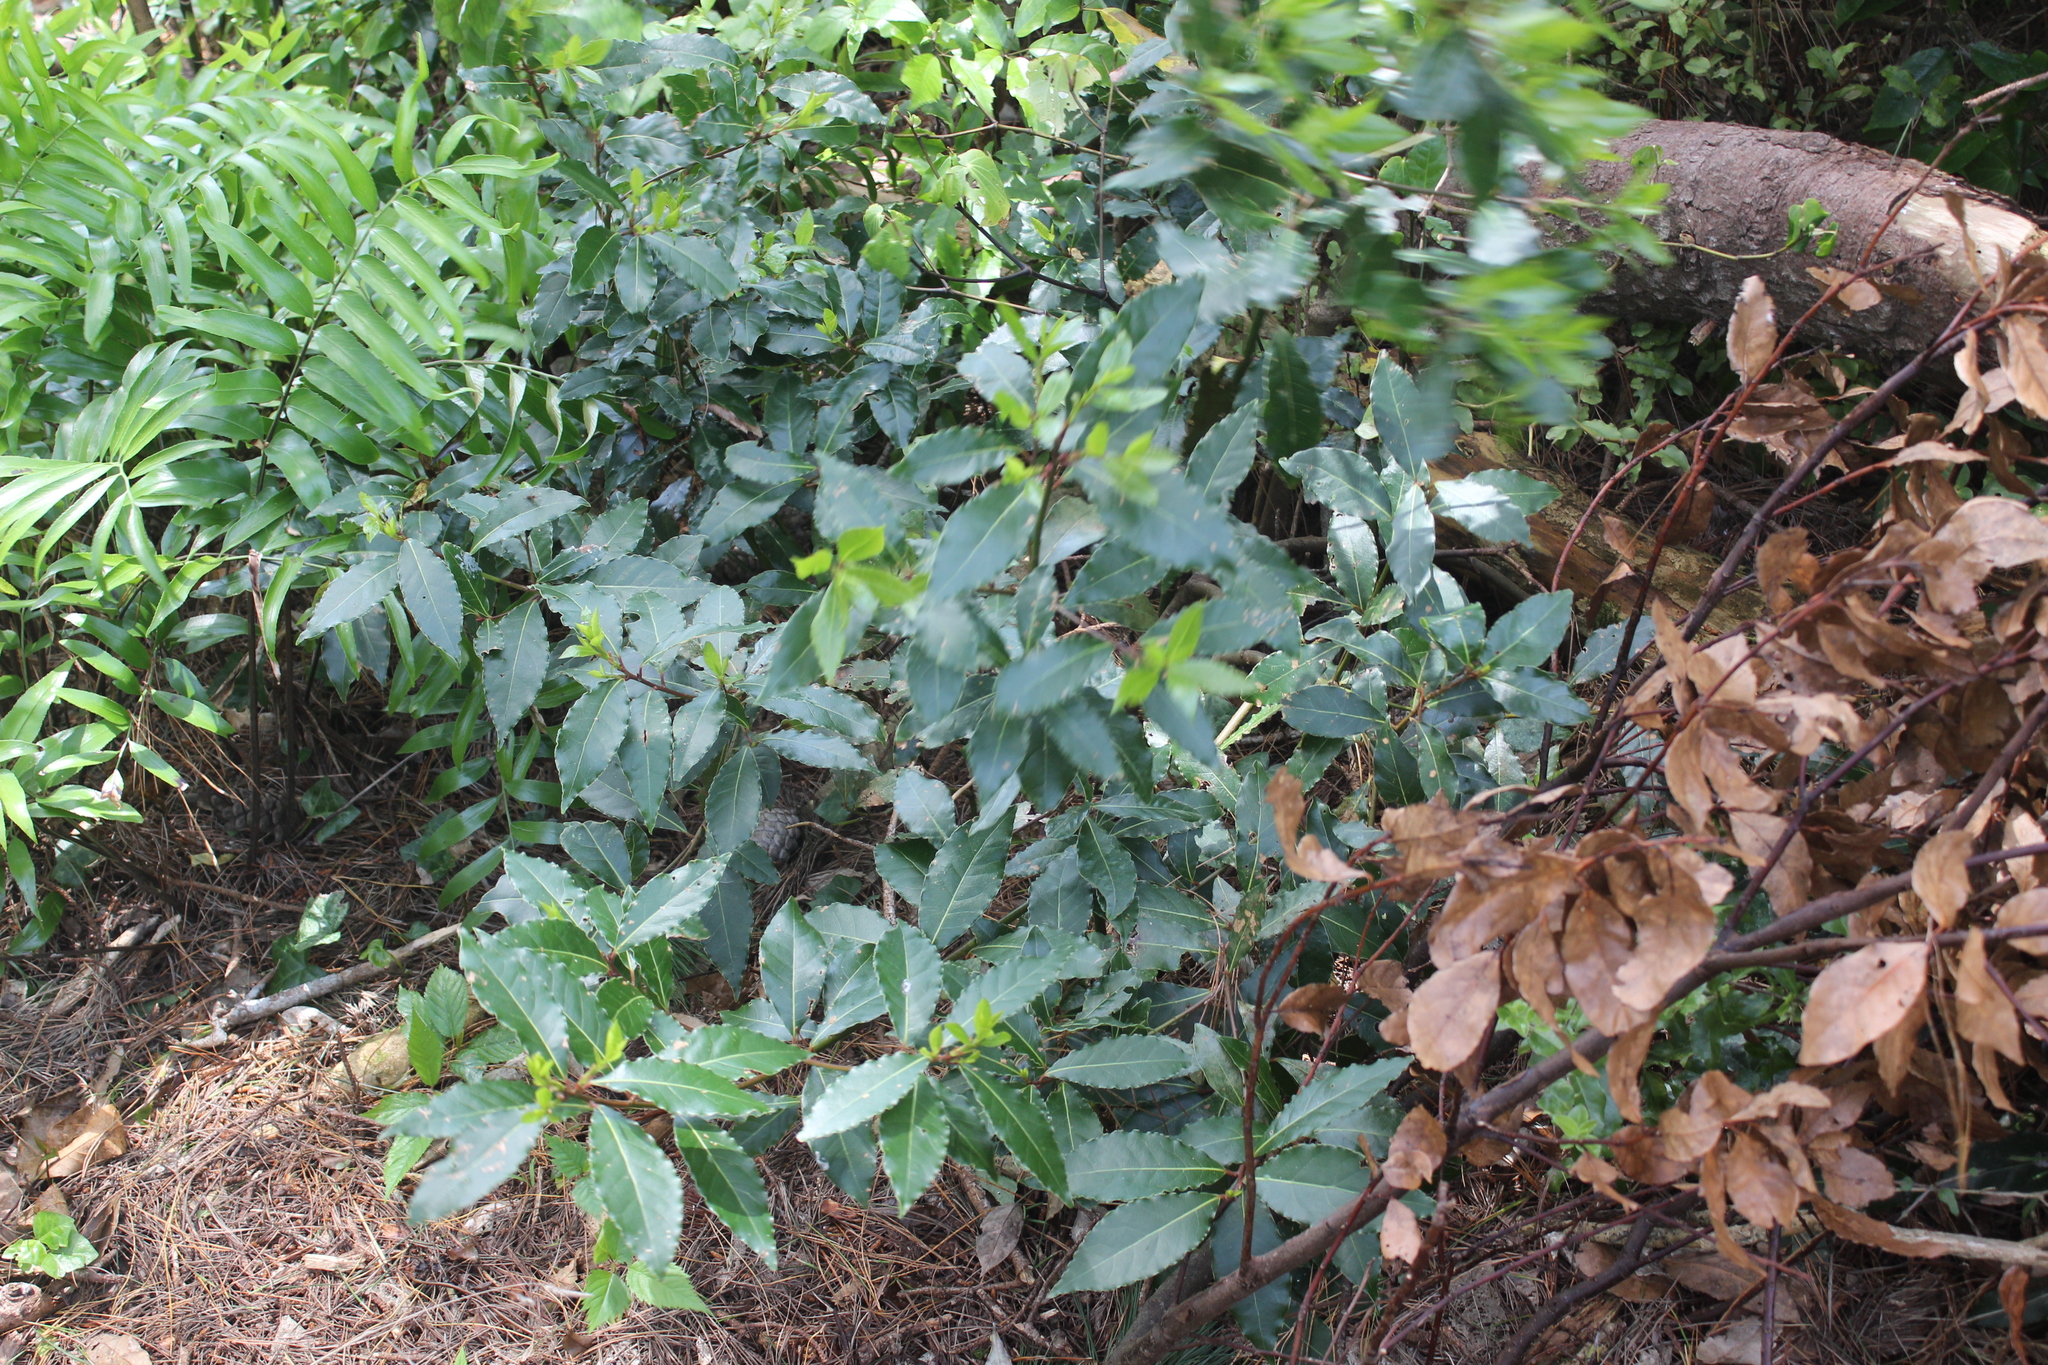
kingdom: Plantae
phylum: Tracheophyta
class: Magnoliopsida
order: Laurales
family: Lauraceae
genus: Laurus
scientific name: Laurus nobilis
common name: Bay
